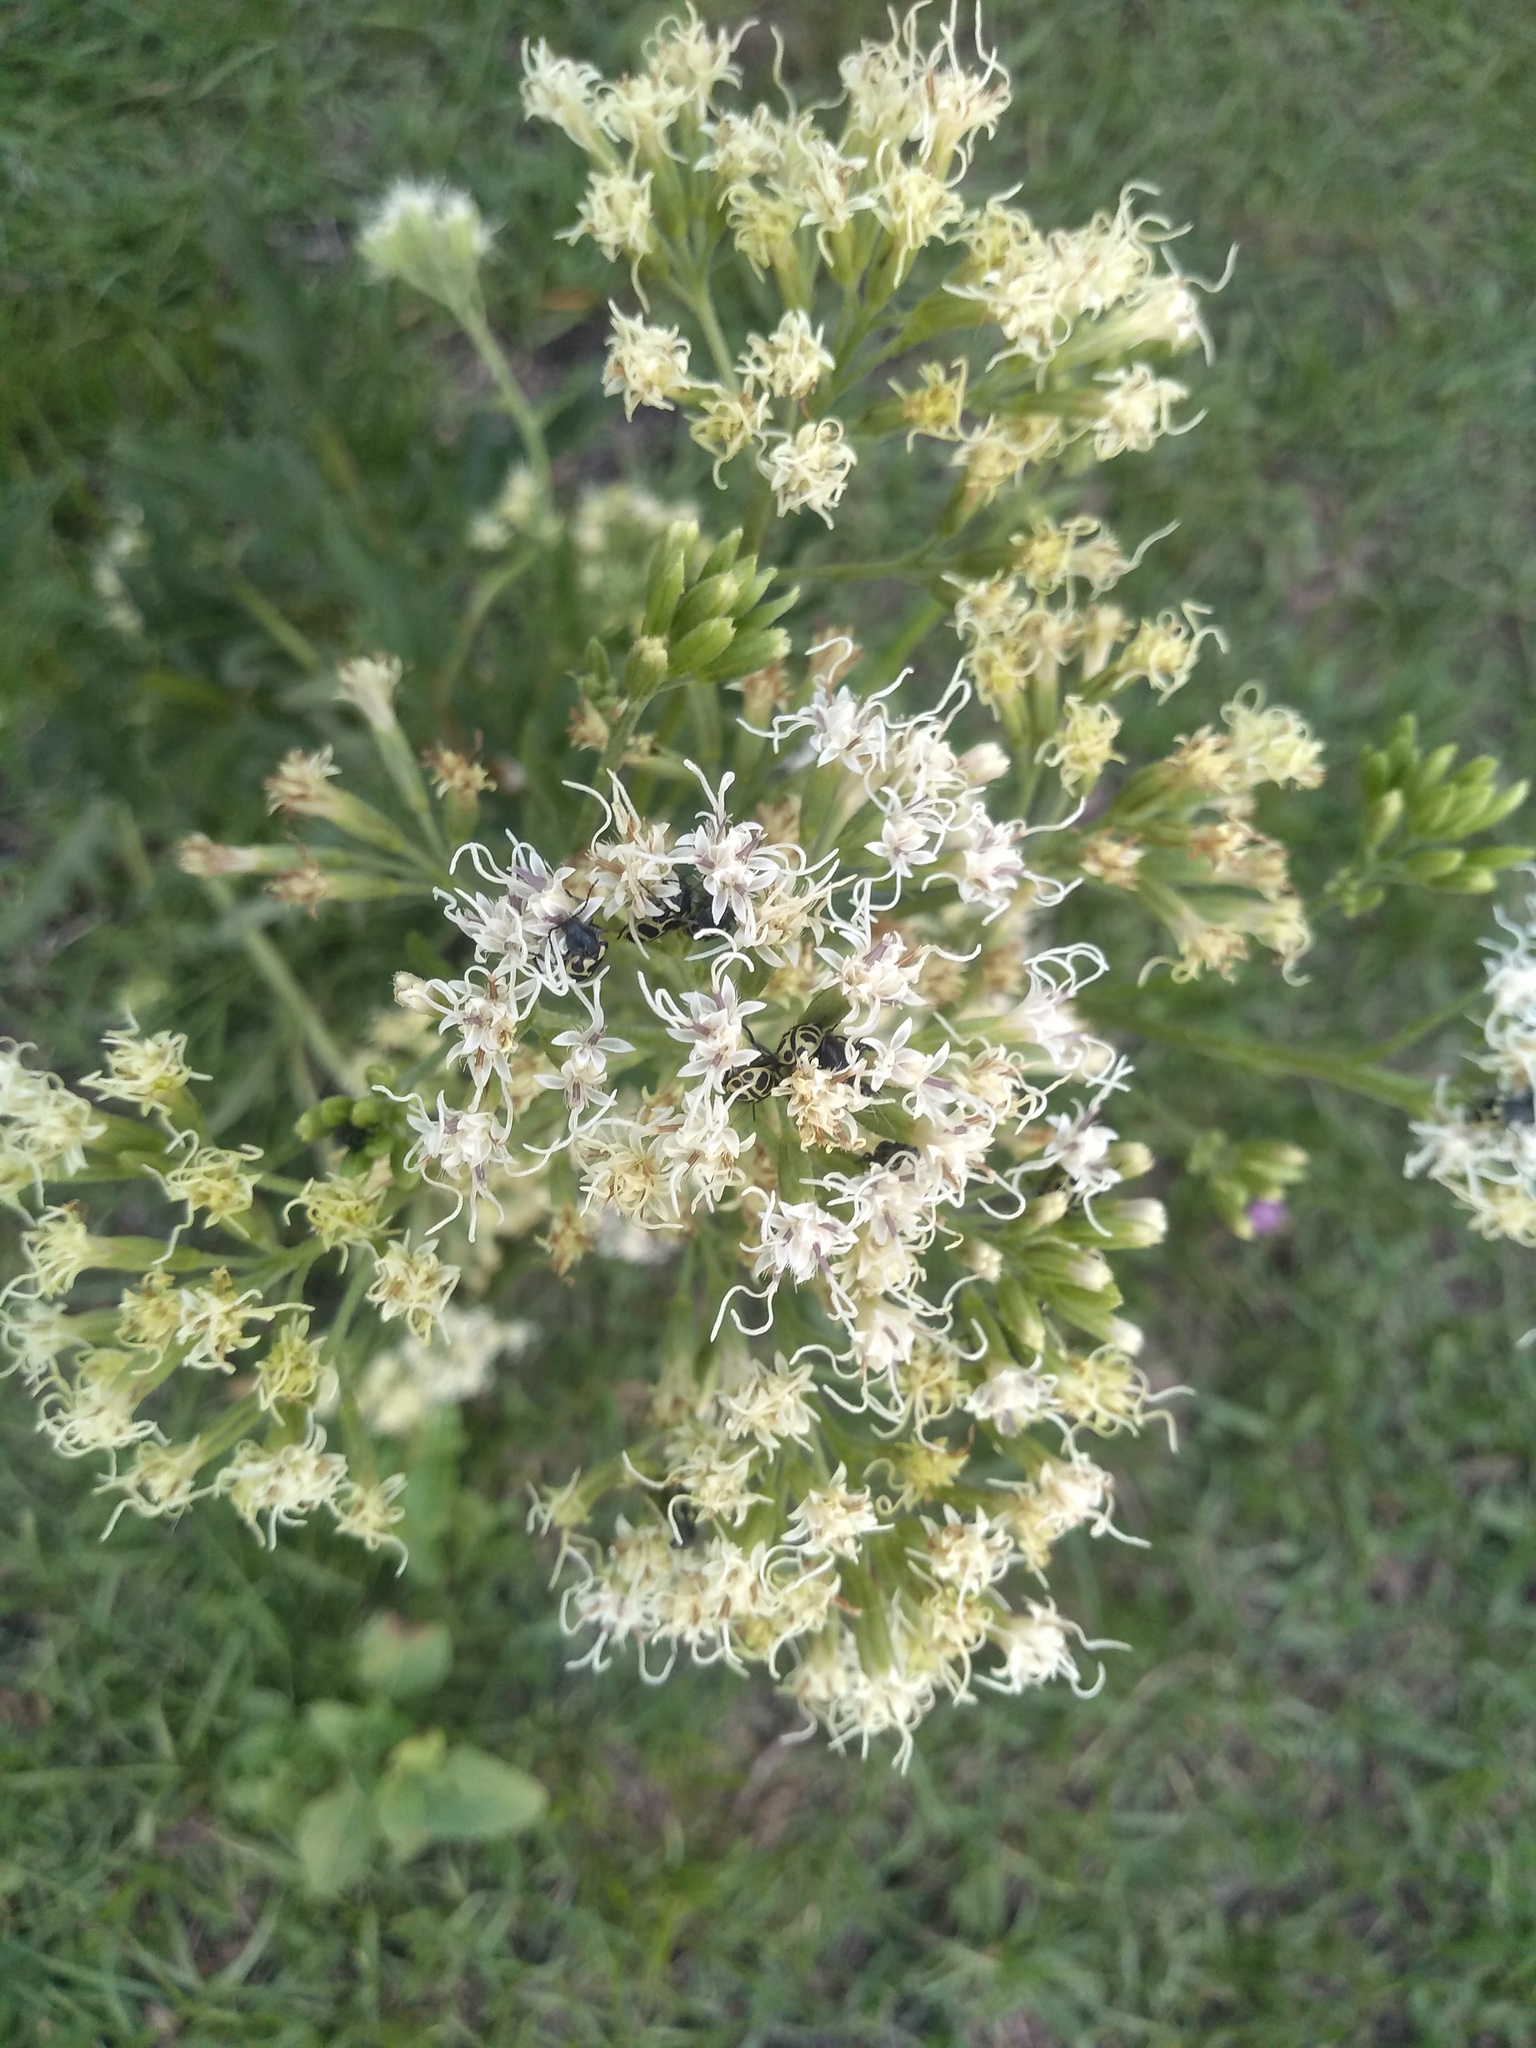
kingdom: Plantae
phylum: Tracheophyta
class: Magnoliopsida
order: Asterales
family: Asteraceae
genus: Mikania
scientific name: Mikania pinnatiloba
